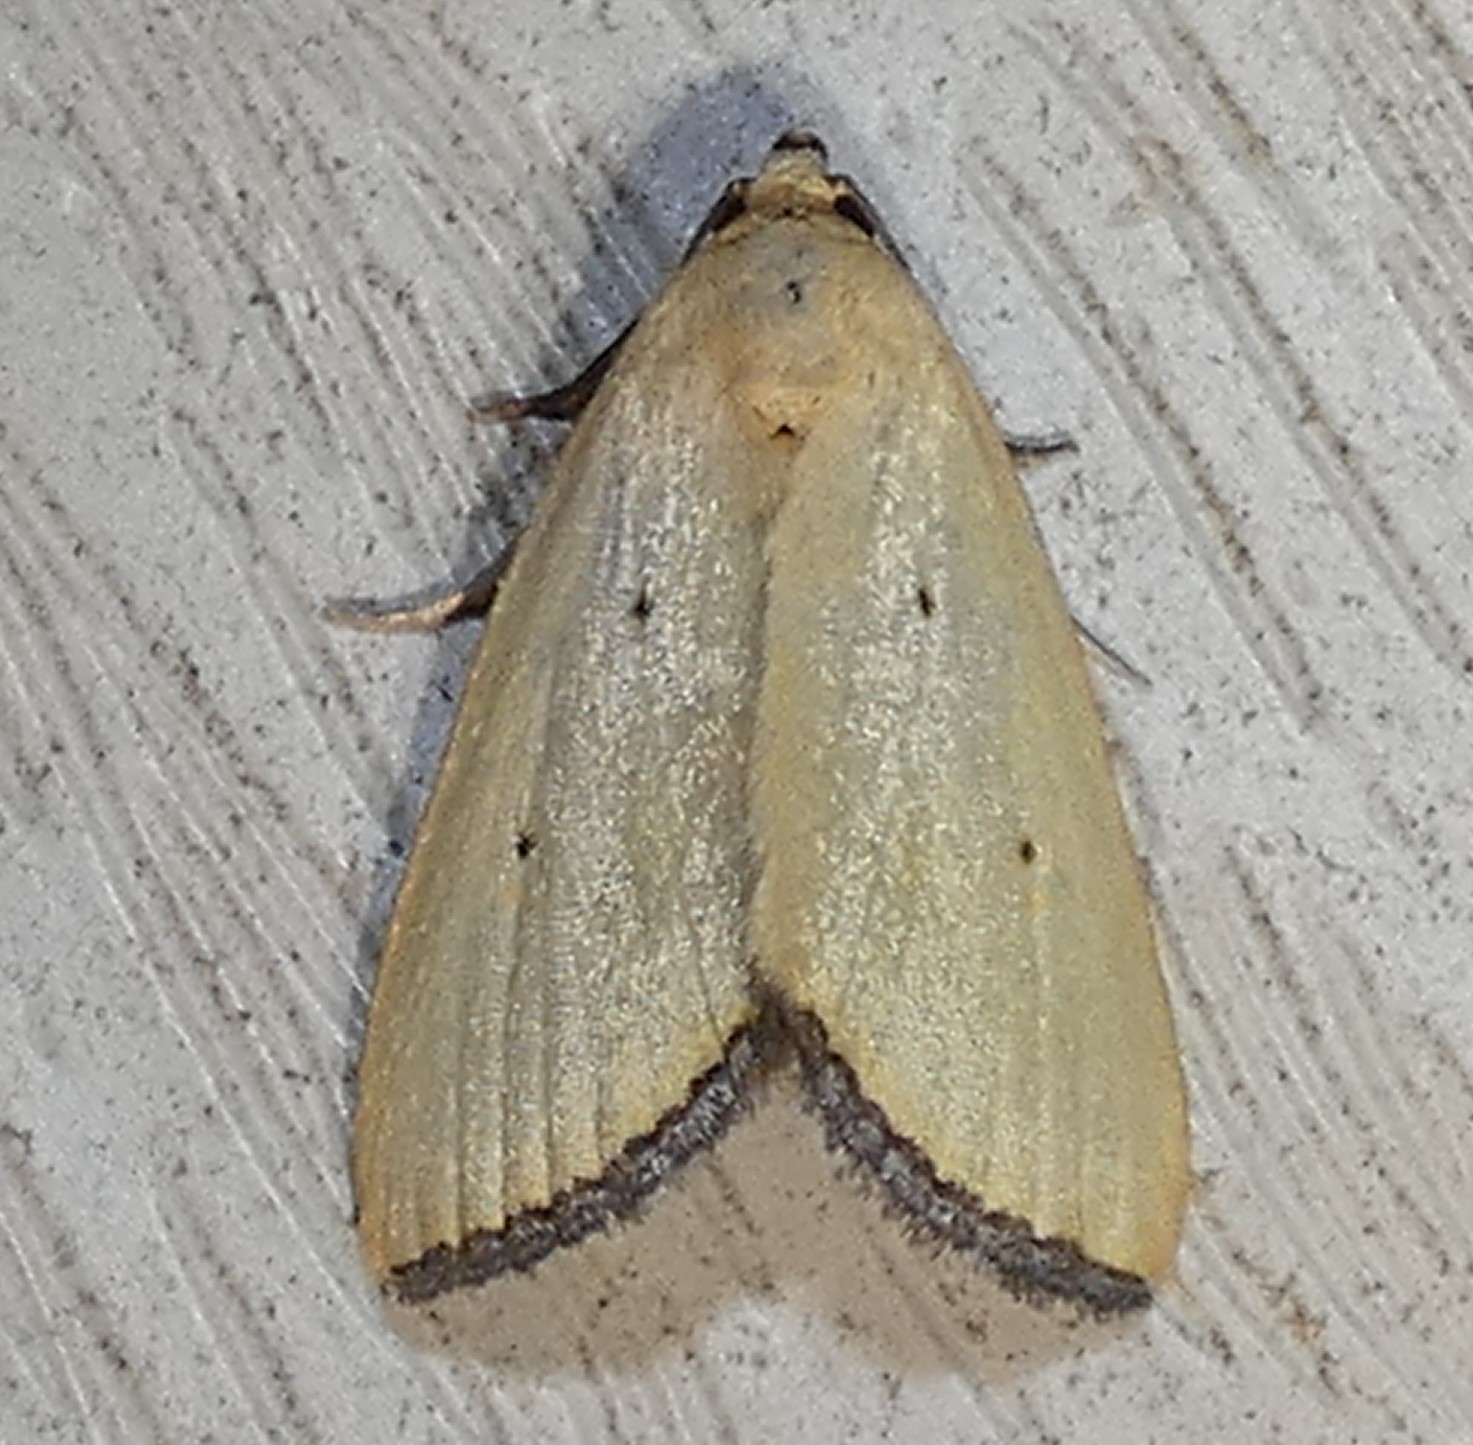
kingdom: Animalia
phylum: Arthropoda
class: Insecta
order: Lepidoptera
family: Noctuidae
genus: Marimatha
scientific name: Marimatha nigrofimbria
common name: Black-bordered lemon moth
